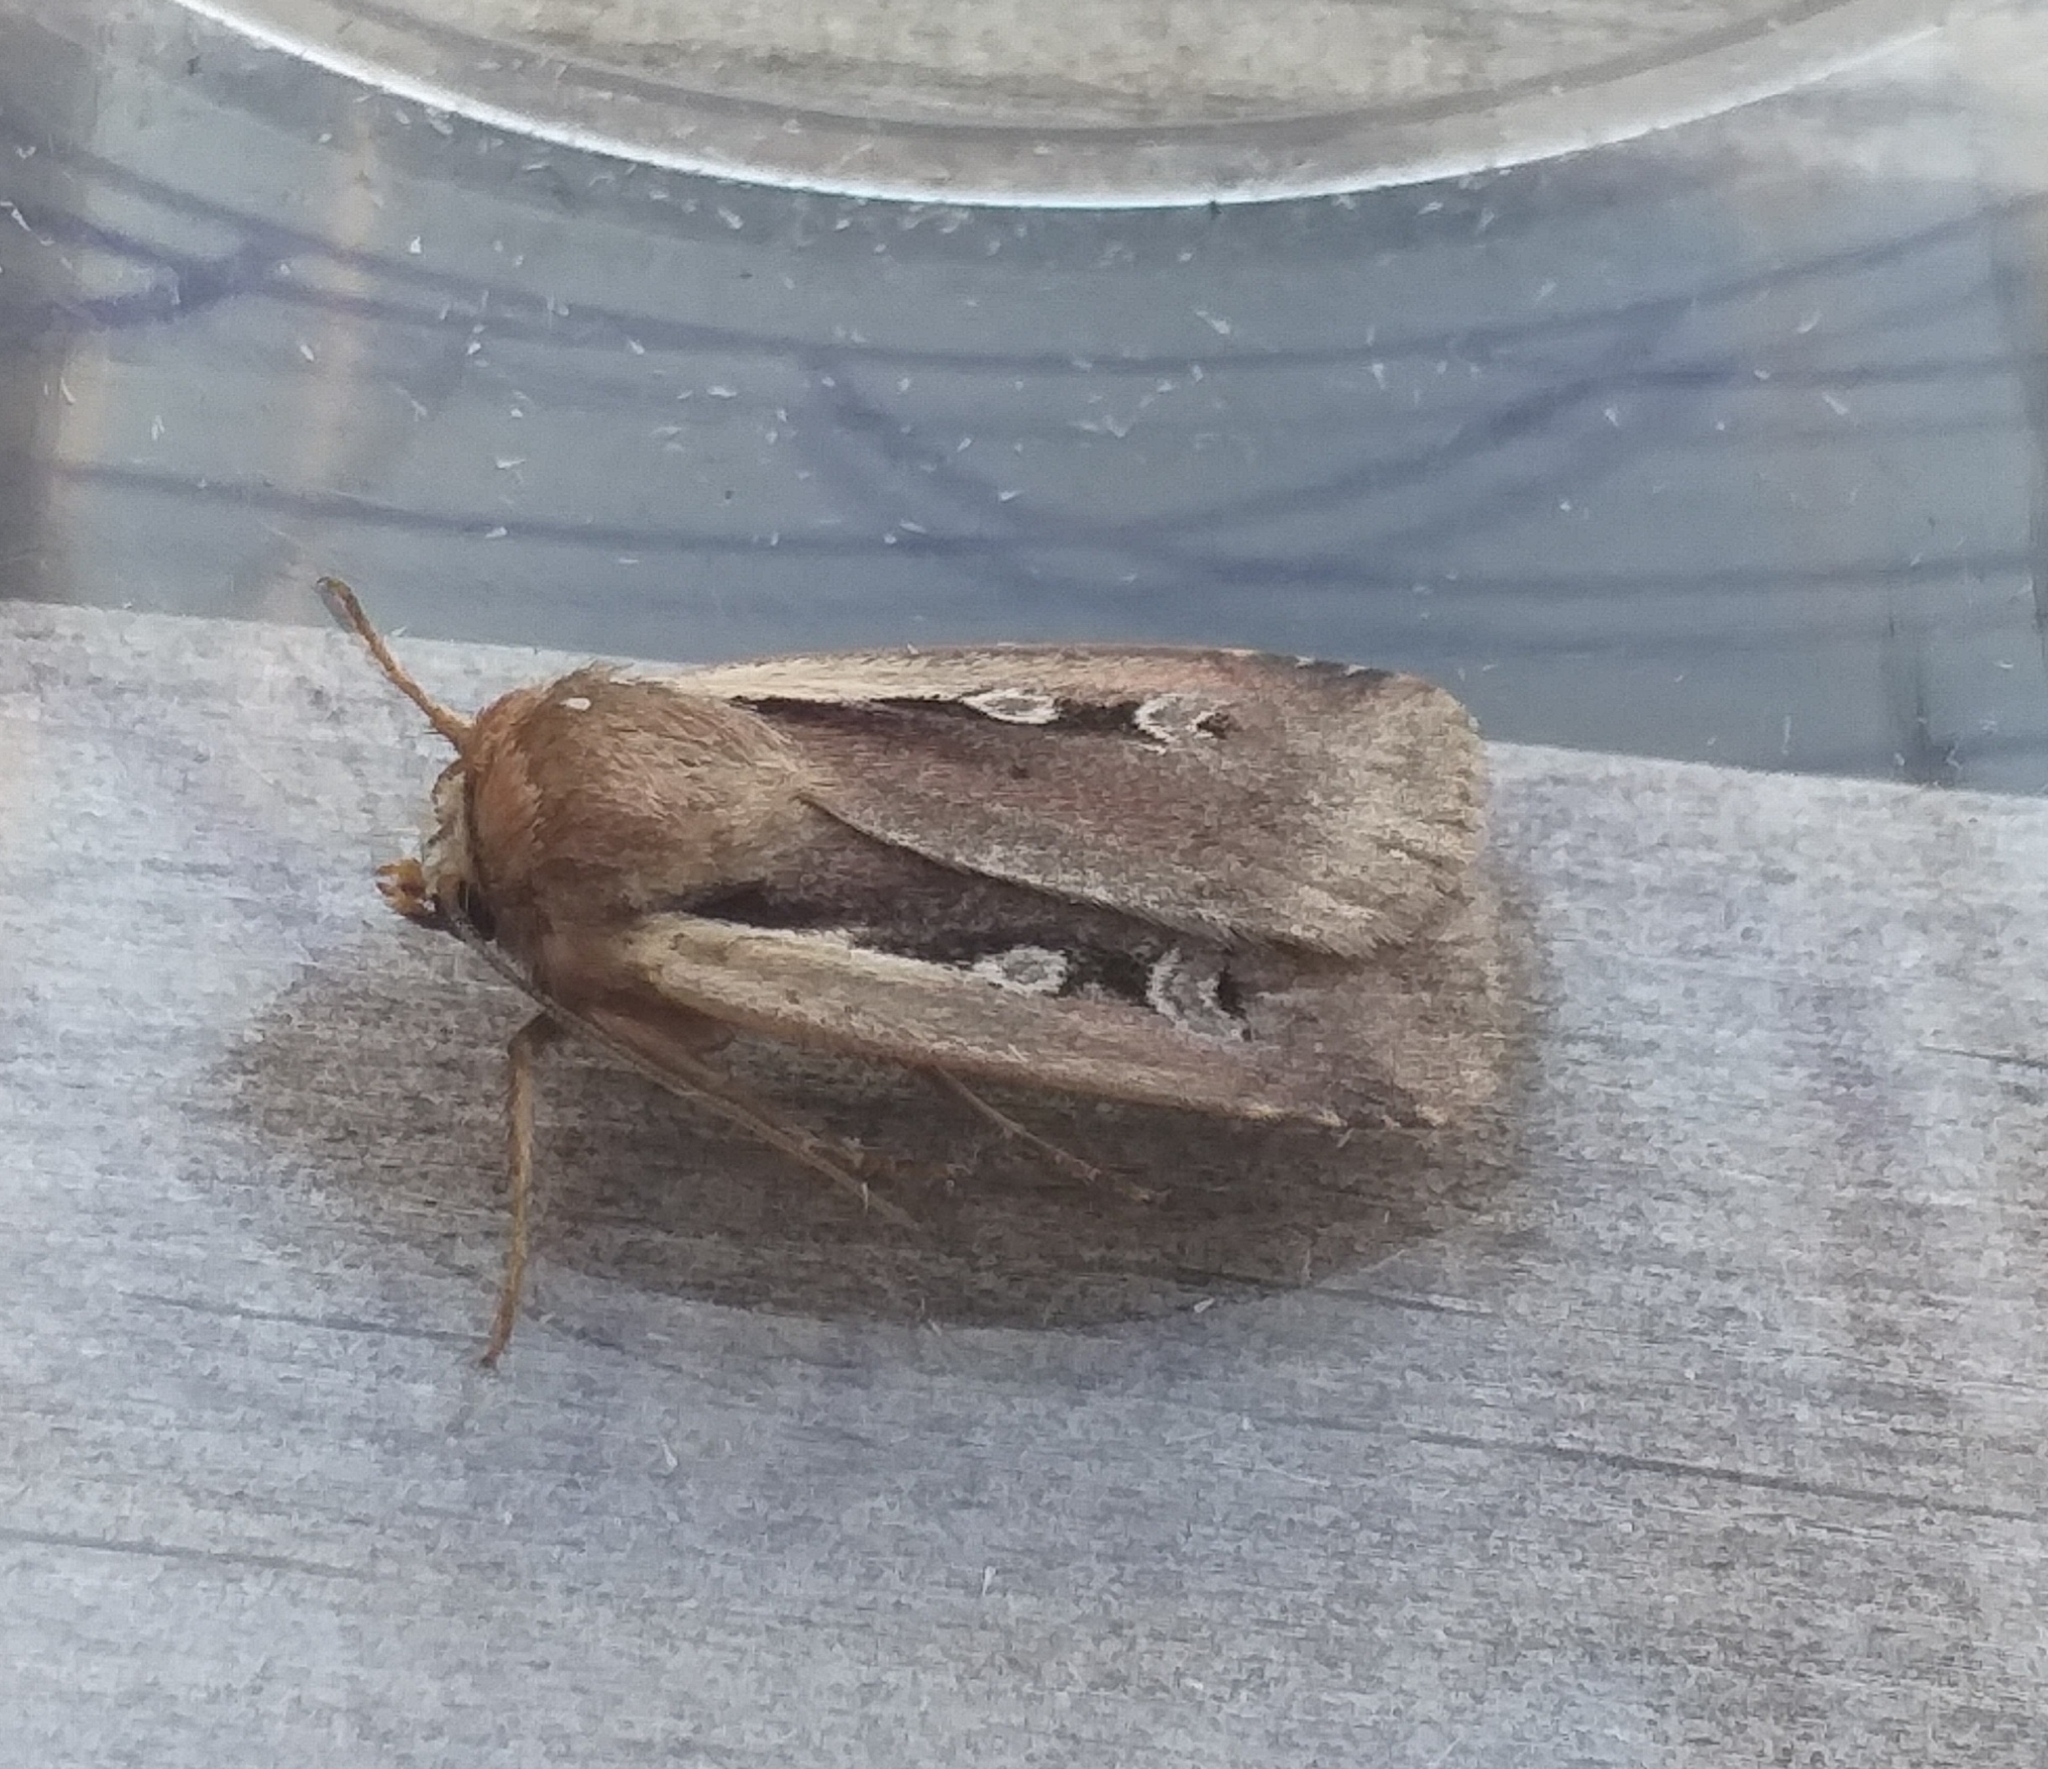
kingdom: Animalia
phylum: Arthropoda
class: Insecta
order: Lepidoptera
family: Noctuidae
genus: Ochropleura
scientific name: Ochropleura plecta
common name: Flame shoulder
